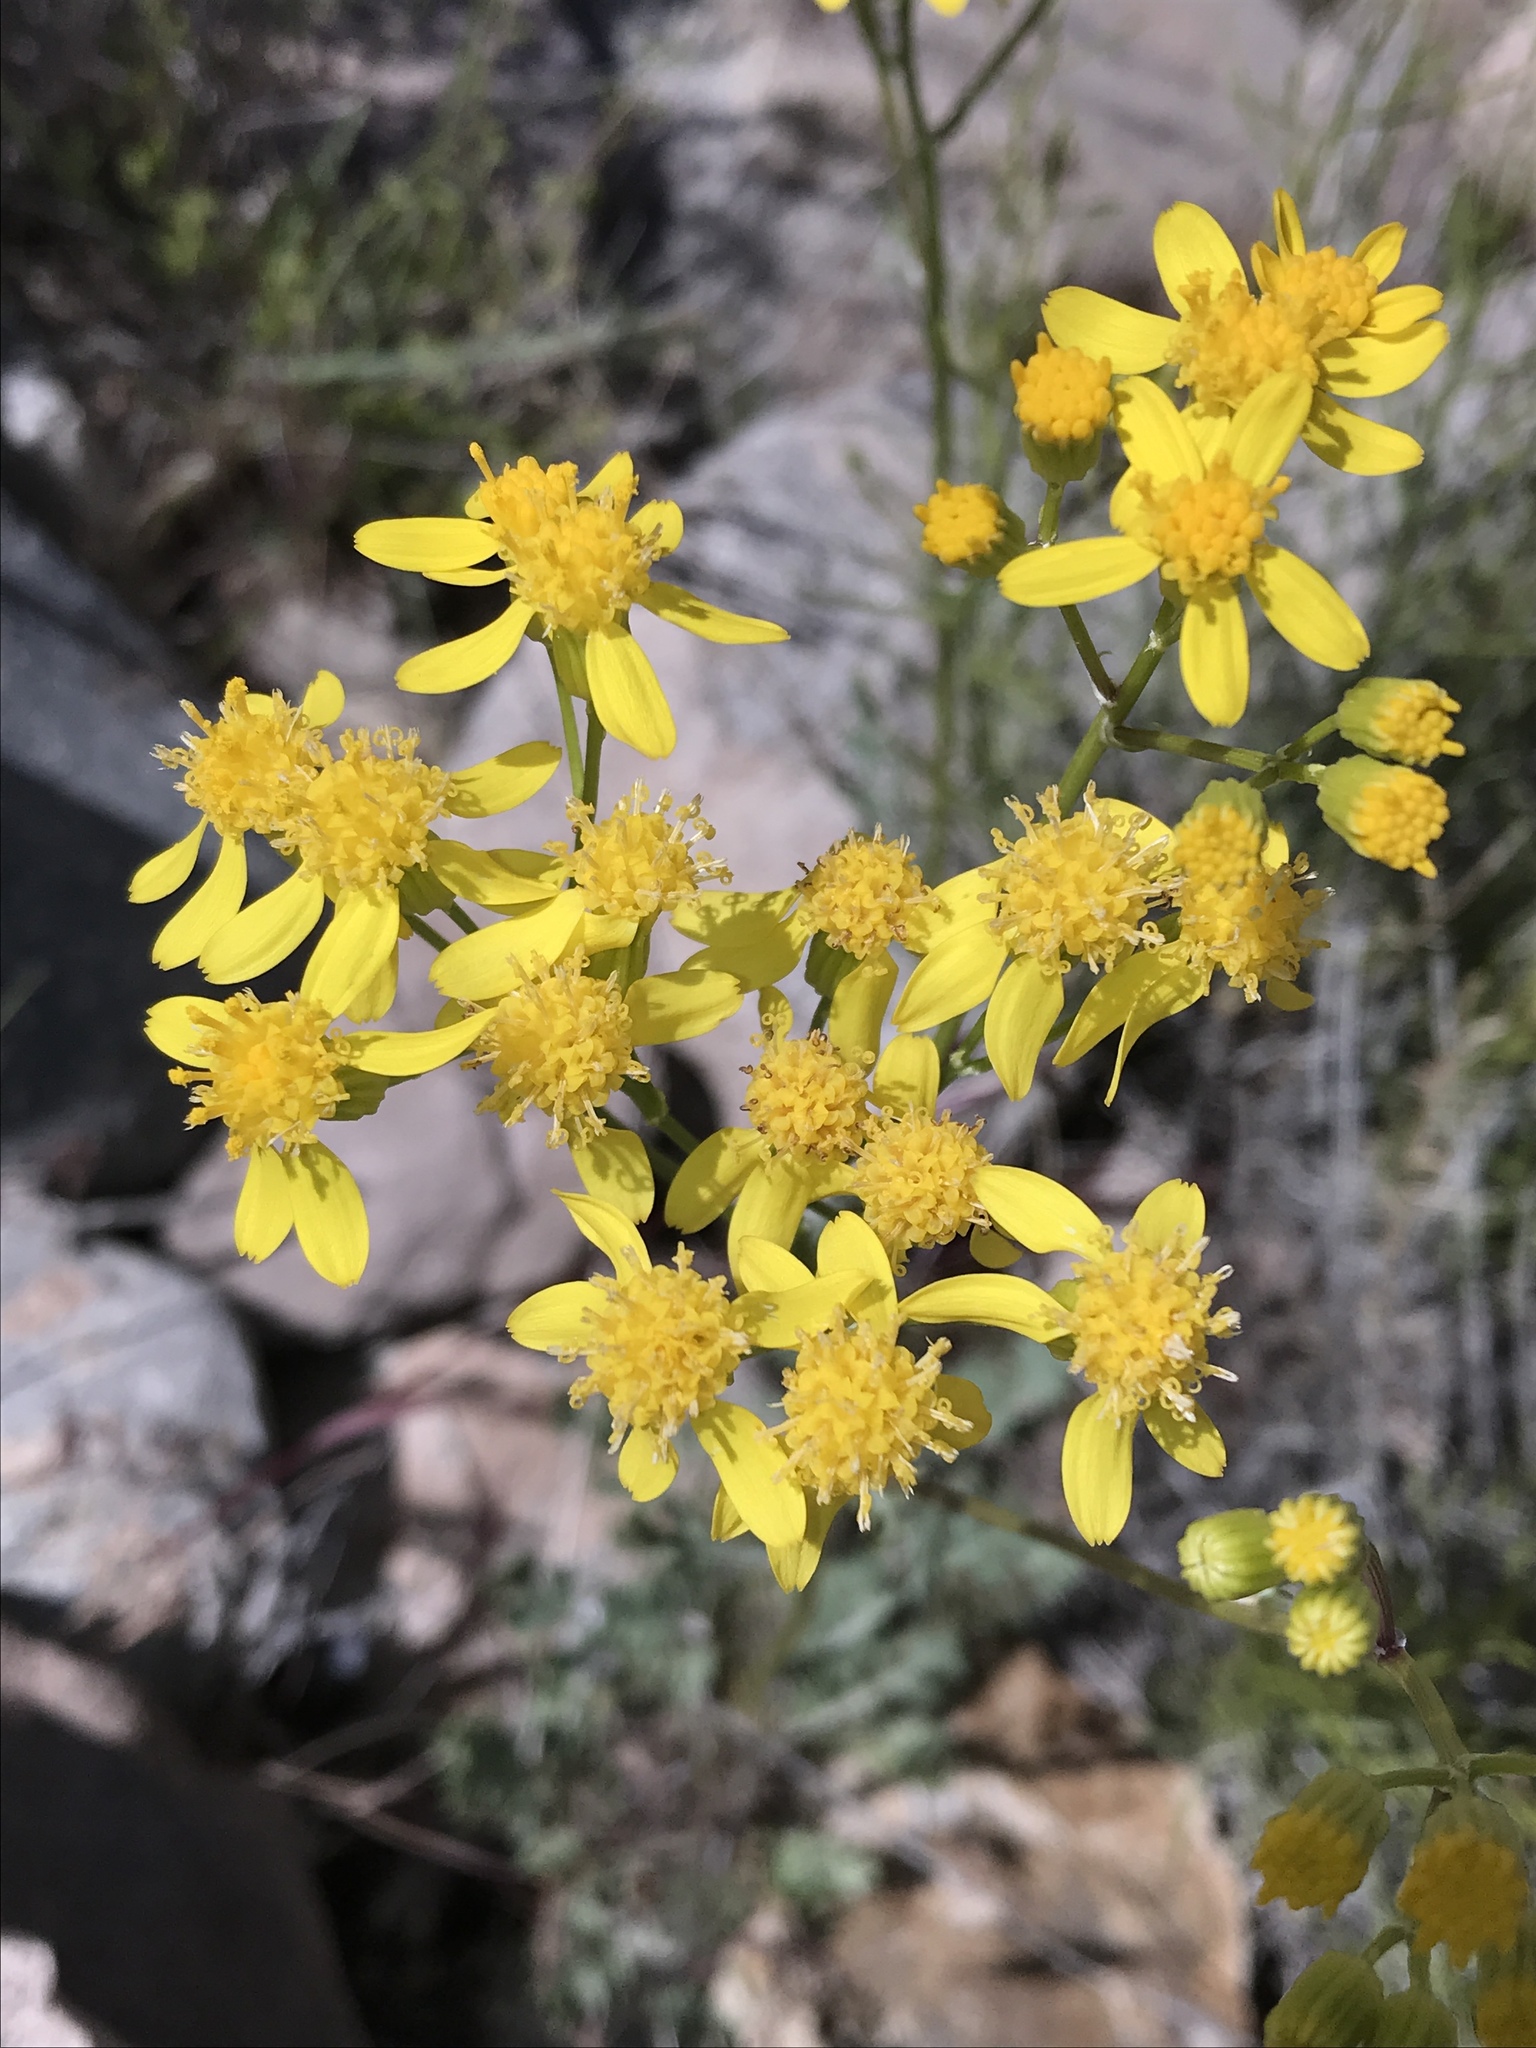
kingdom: Plantae
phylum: Tracheophyta
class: Magnoliopsida
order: Asterales
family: Asteraceae
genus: Packera
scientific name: Packera multilobata
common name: Lobe-leaf groundsel
